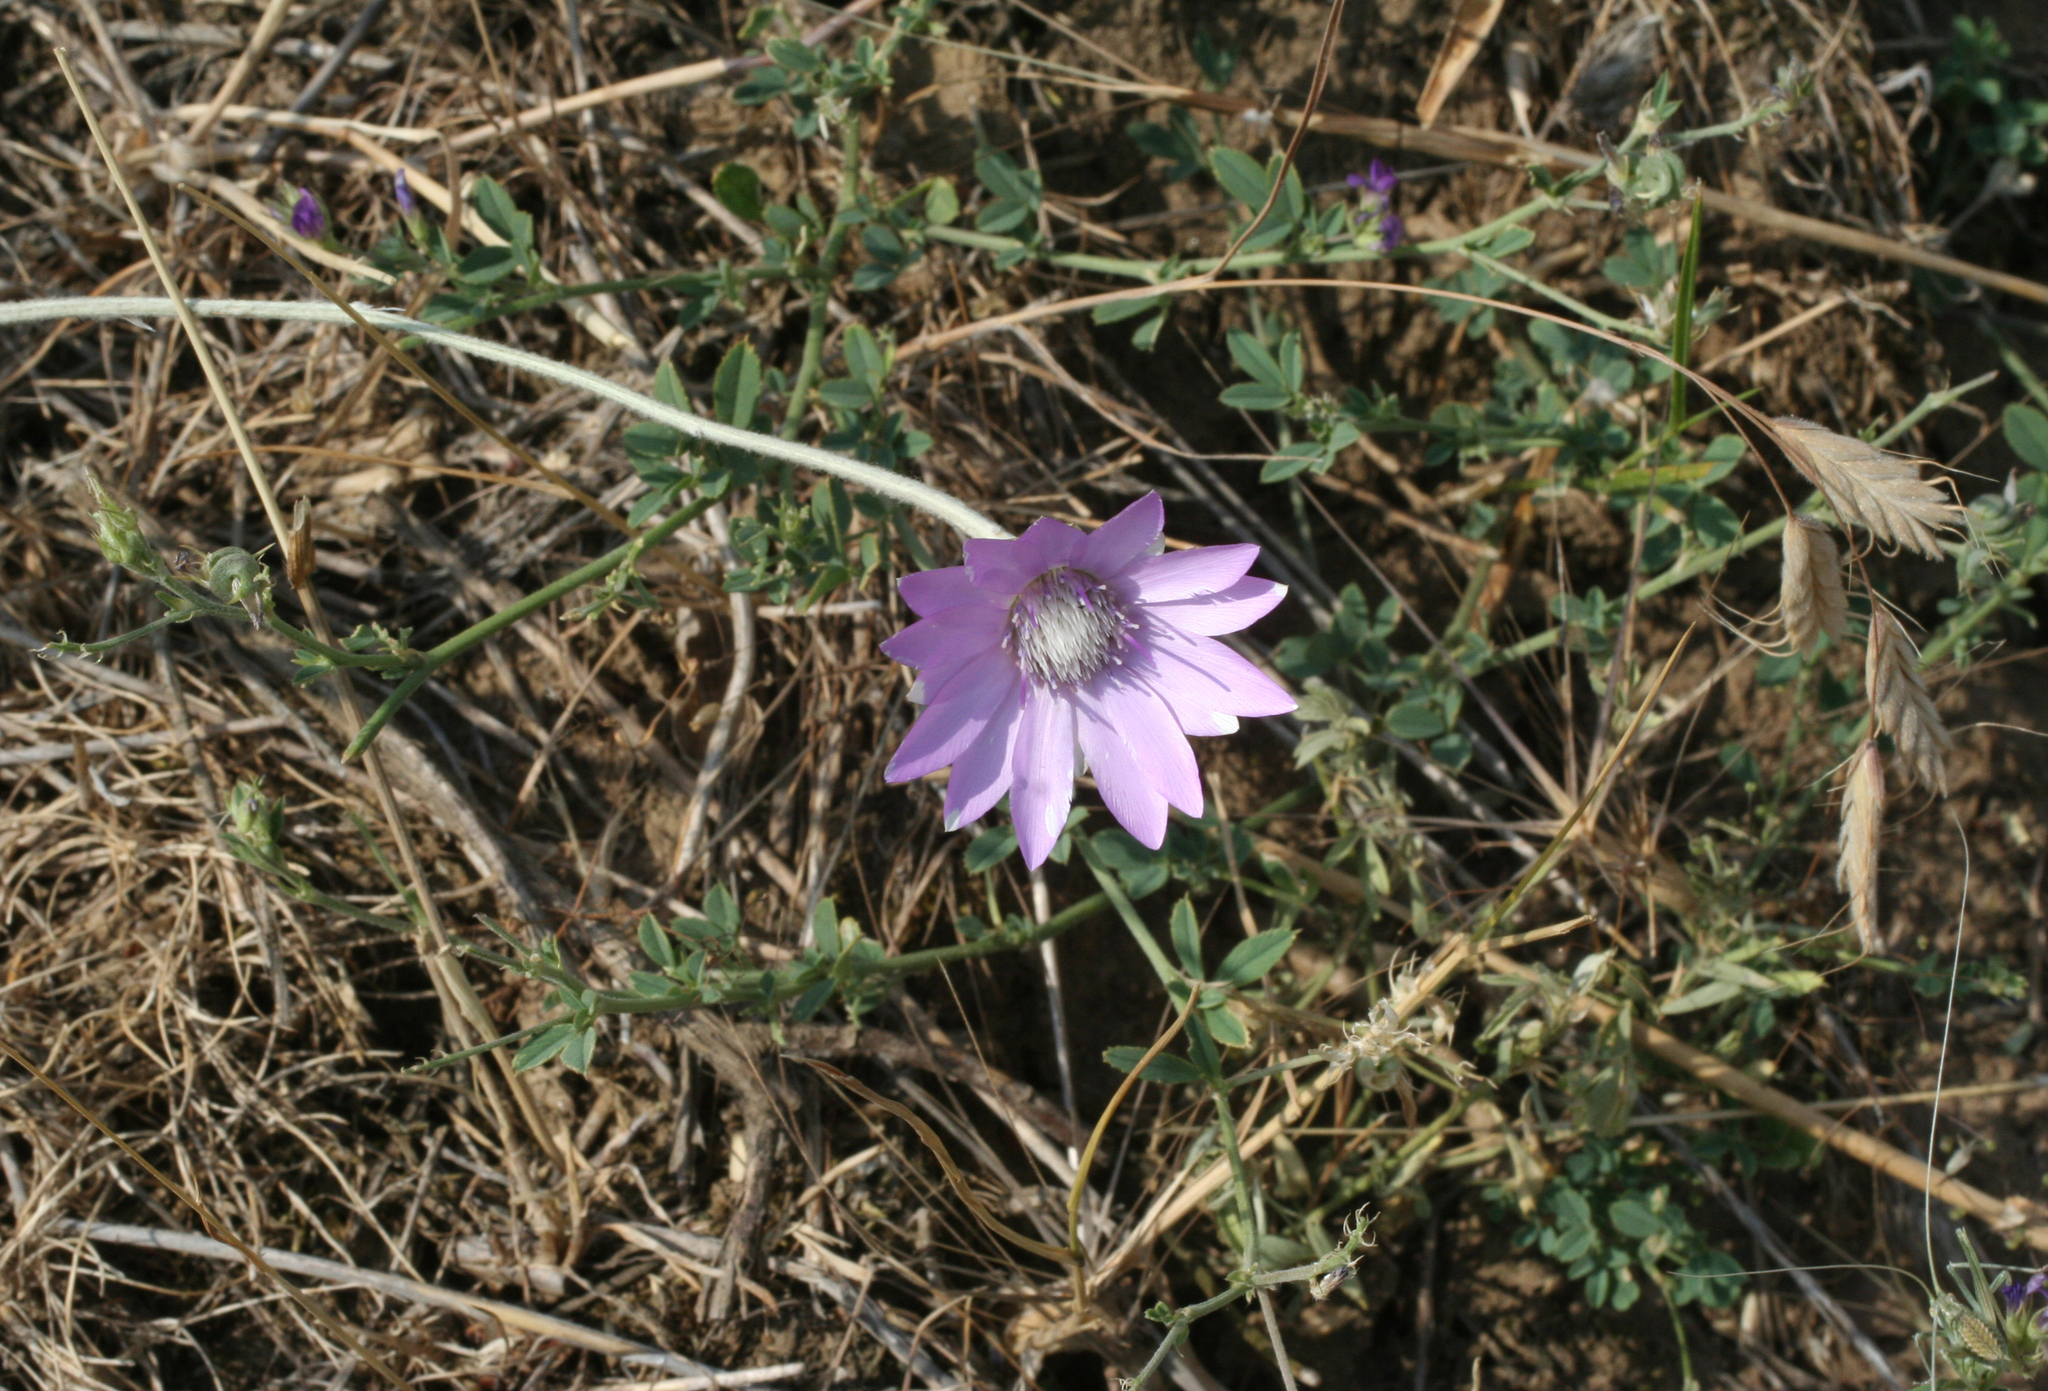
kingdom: Plantae
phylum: Tracheophyta
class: Magnoliopsida
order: Asterales
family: Asteraceae
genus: Xeranthemum
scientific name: Xeranthemum annuum
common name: Immortelle
